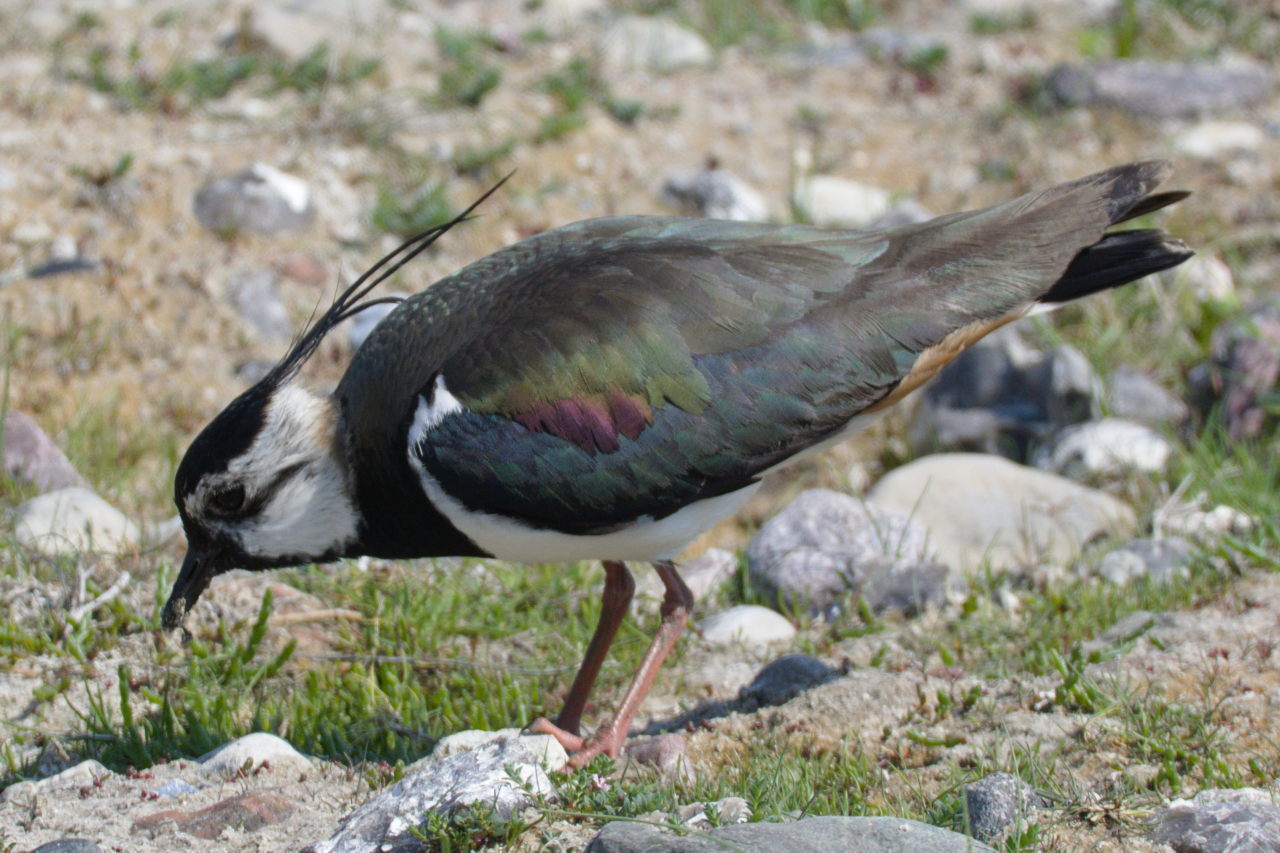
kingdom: Animalia
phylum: Chordata
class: Aves
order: Charadriiformes
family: Charadriidae
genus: Vanellus
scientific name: Vanellus vanellus
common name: Northern lapwing
